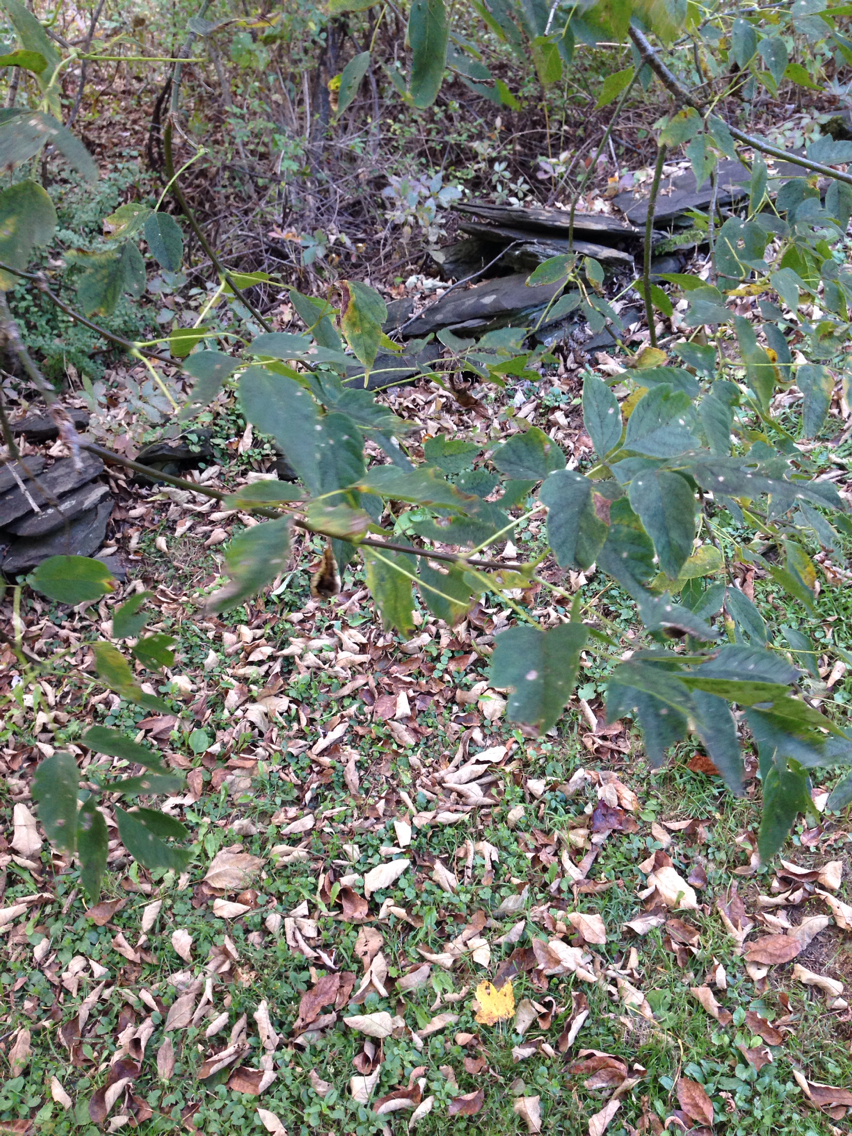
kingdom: Plantae
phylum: Tracheophyta
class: Magnoliopsida
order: Sapindales
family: Sapindaceae
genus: Acer
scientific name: Acer negundo
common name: Ashleaf maple
